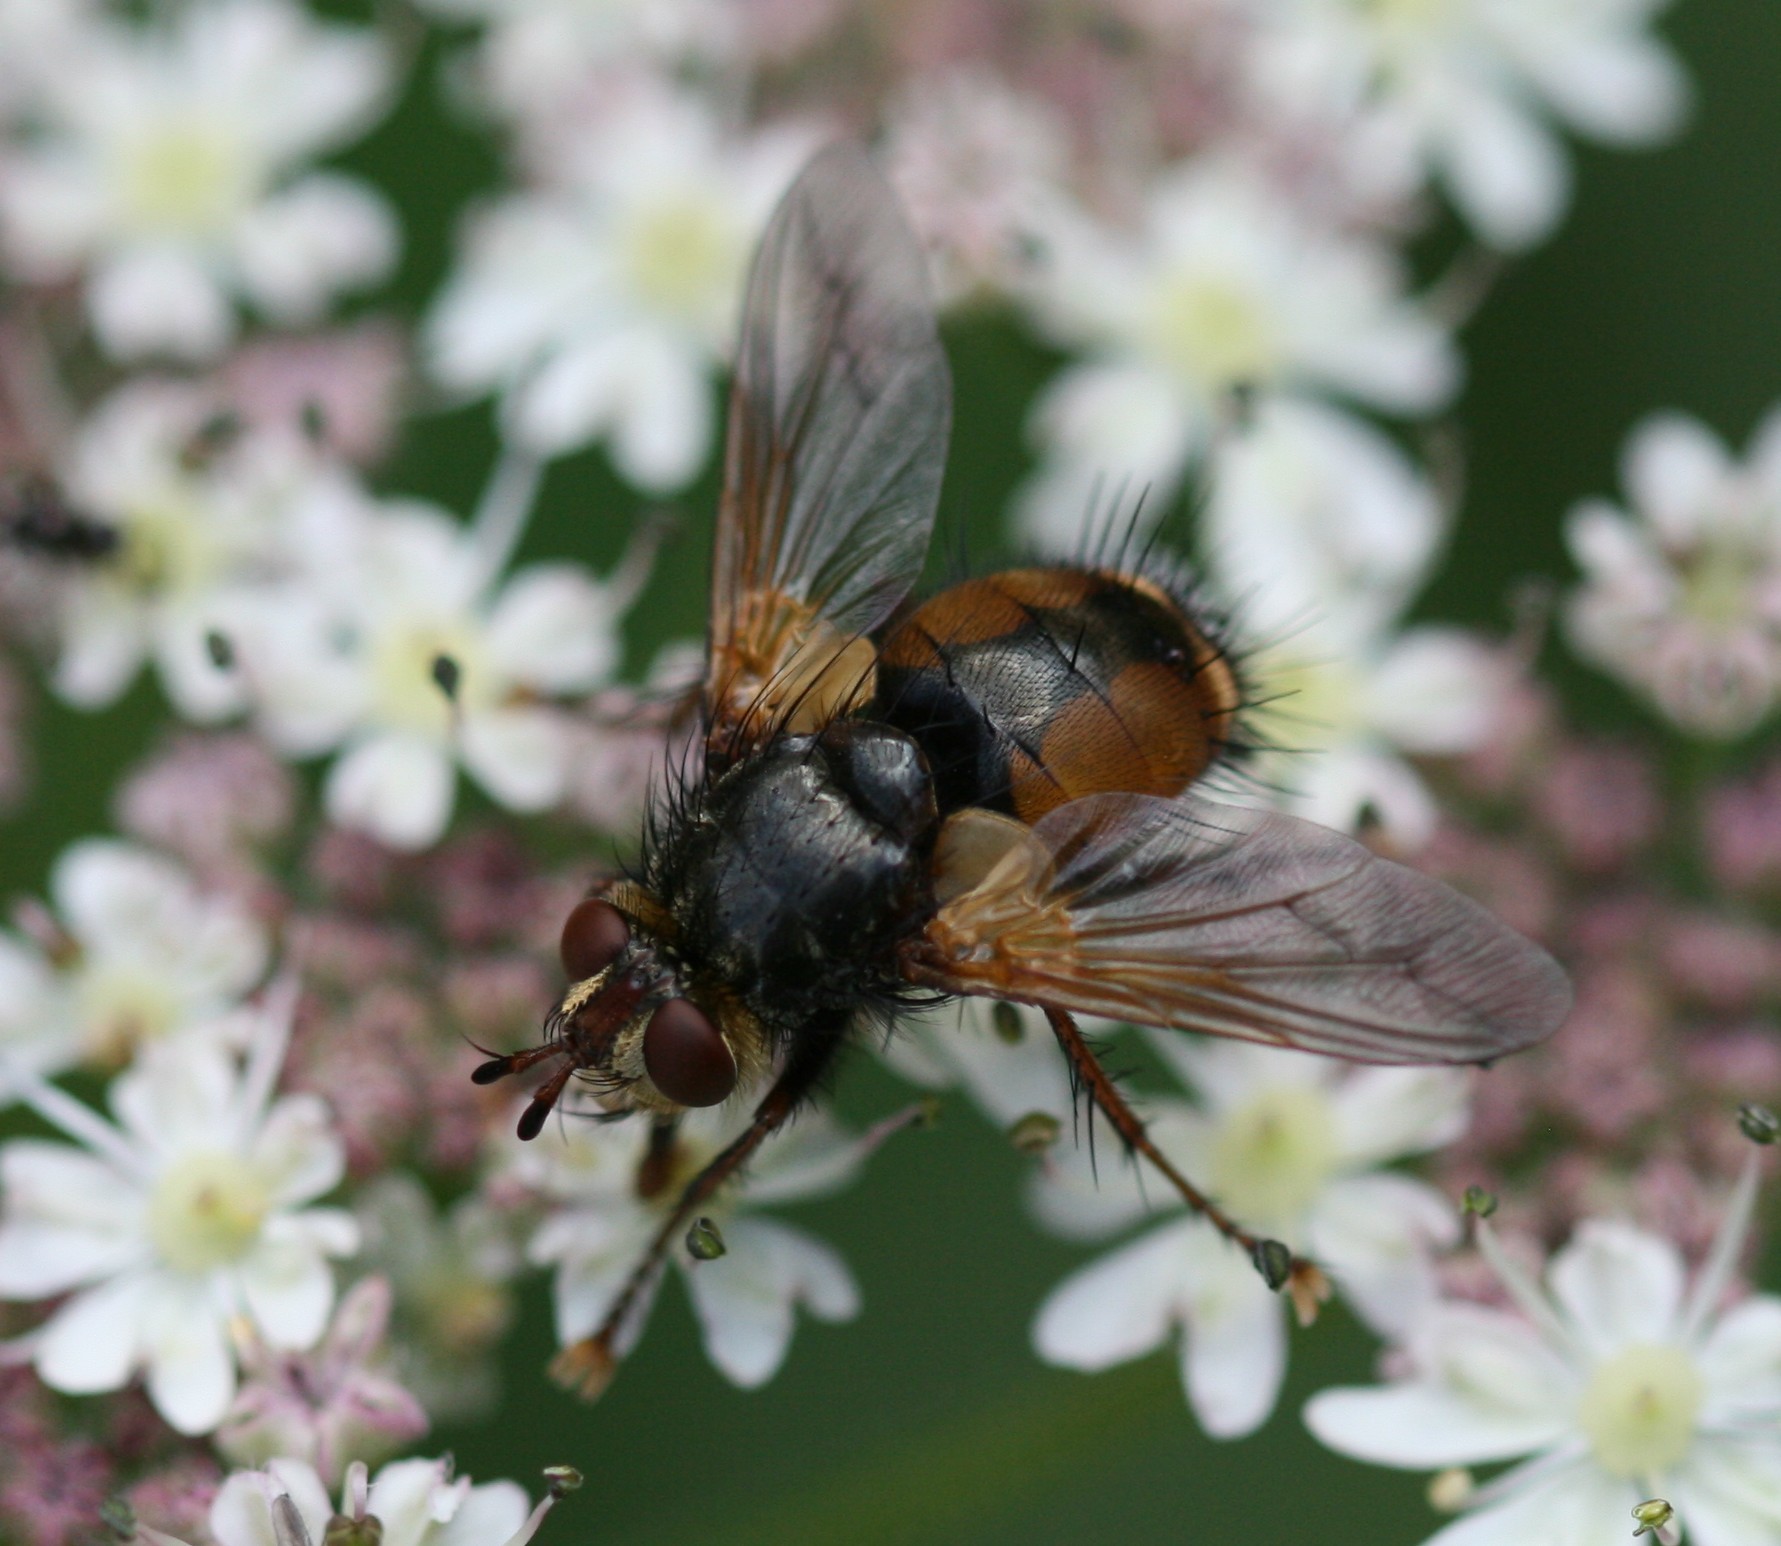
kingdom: Animalia
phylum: Arthropoda
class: Insecta
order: Diptera
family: Tachinidae
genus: Tachina
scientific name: Tachina fera
